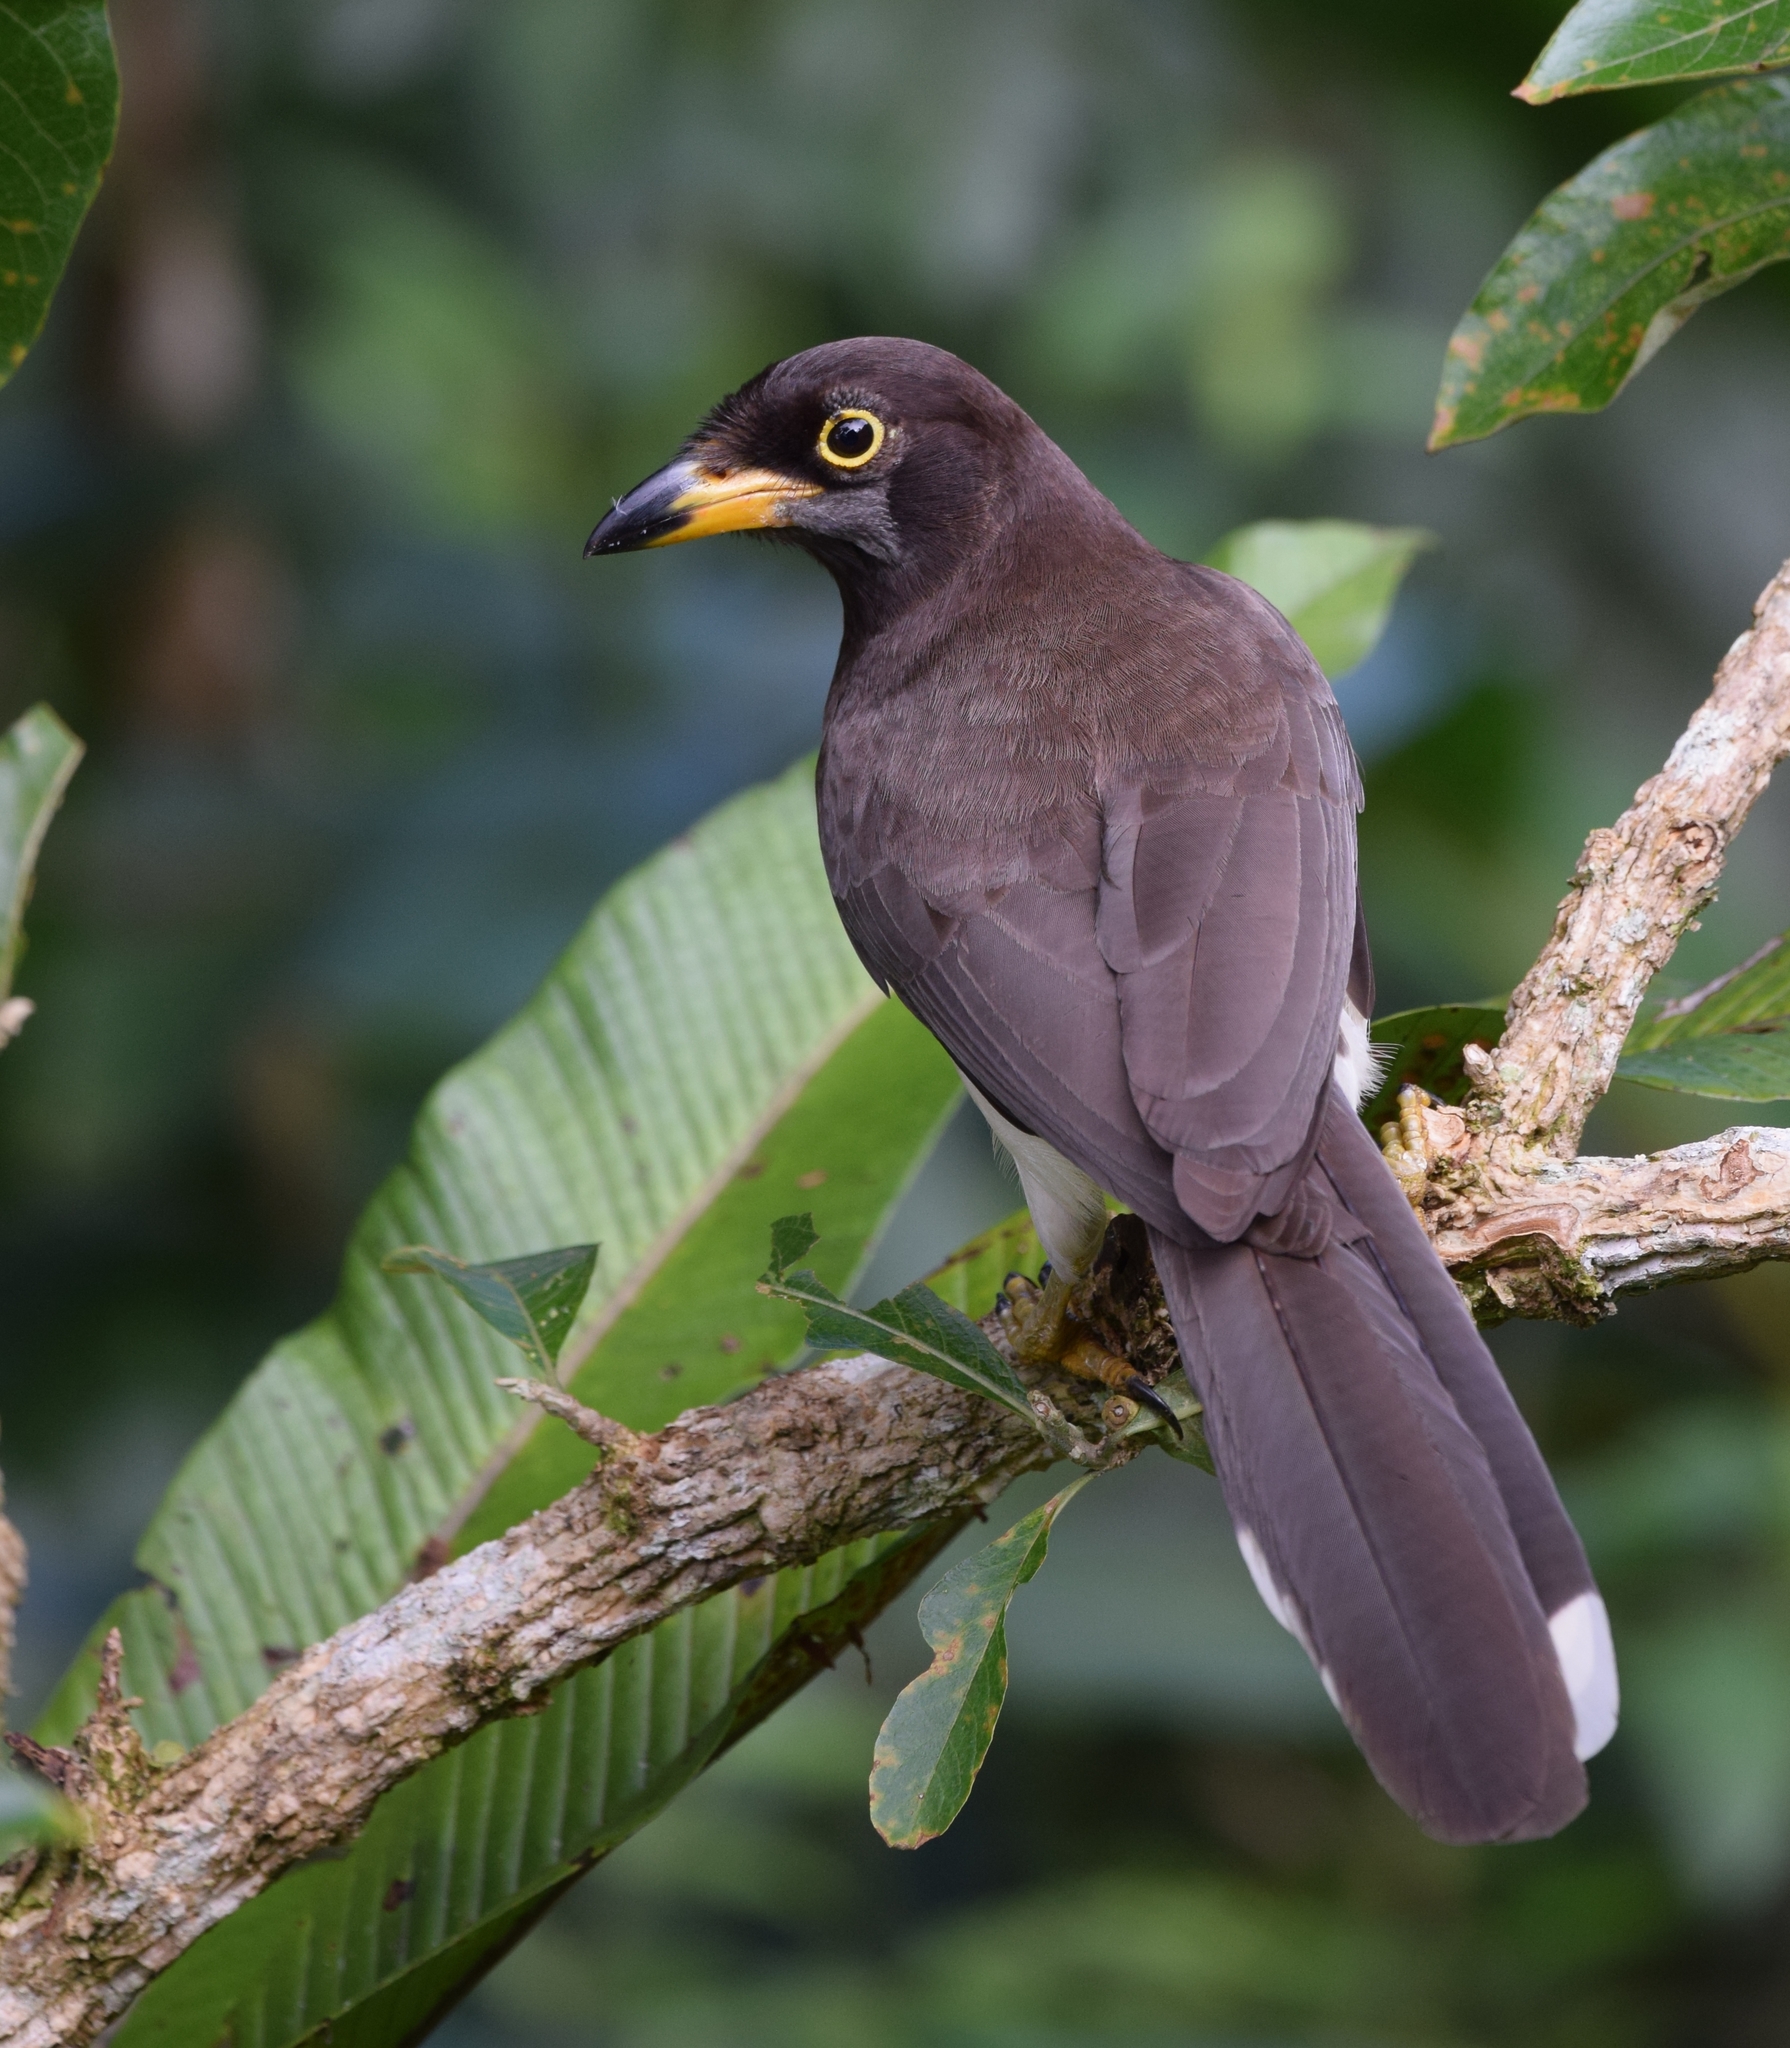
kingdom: Animalia
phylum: Chordata
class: Aves
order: Passeriformes
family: Corvidae
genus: Psilorhinus
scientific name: Psilorhinus morio
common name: Brown jay
